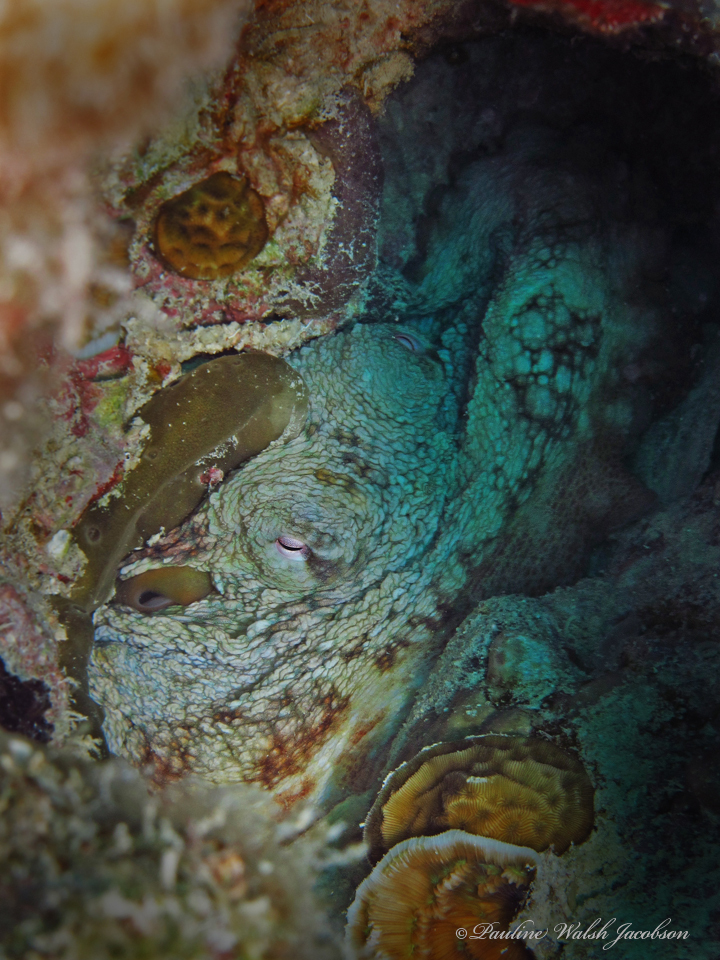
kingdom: Animalia
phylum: Mollusca
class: Cephalopoda
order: Octopoda
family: Octopodidae
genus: Octopus
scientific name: Octopus insularis
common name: Brazil reef octopus
